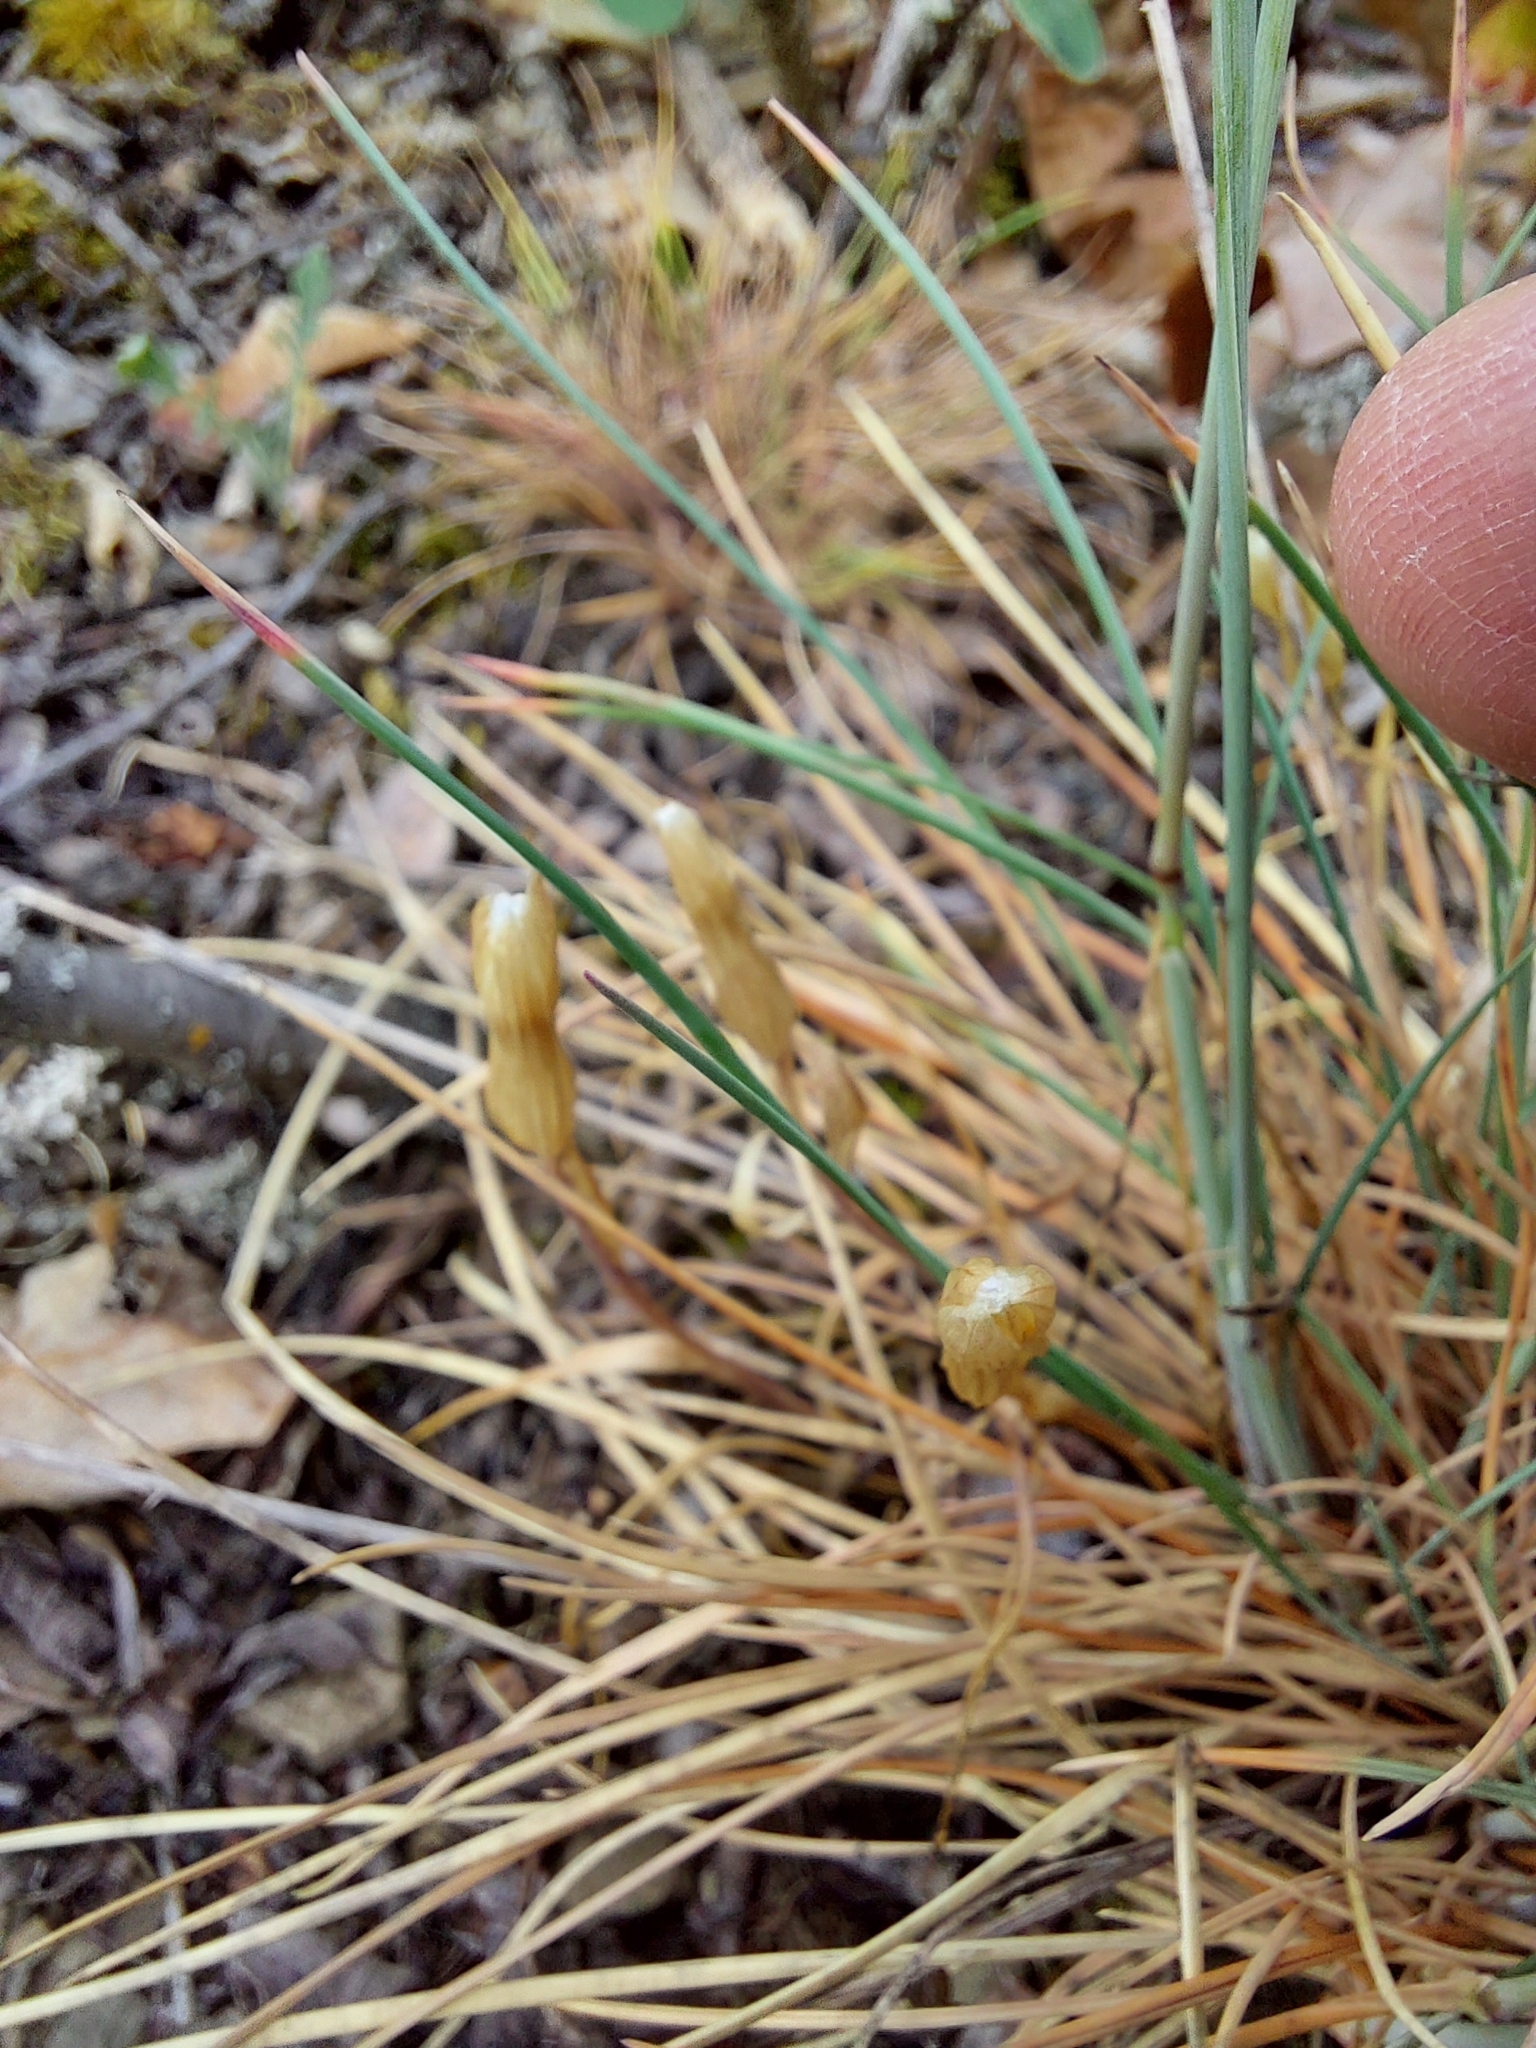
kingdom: Plantae
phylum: Tracheophyta
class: Liliopsida
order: Liliales
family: Liliaceae
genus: Gagea
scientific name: Gagea bohemica
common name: Early star-of-bethlehem
